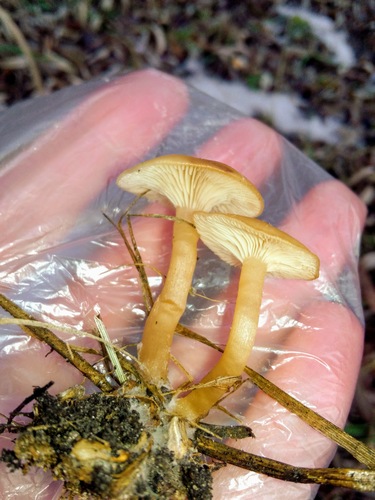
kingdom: Fungi
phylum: Basidiomycota
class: Agaricomycetes
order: Agaricales
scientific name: Agaricales
